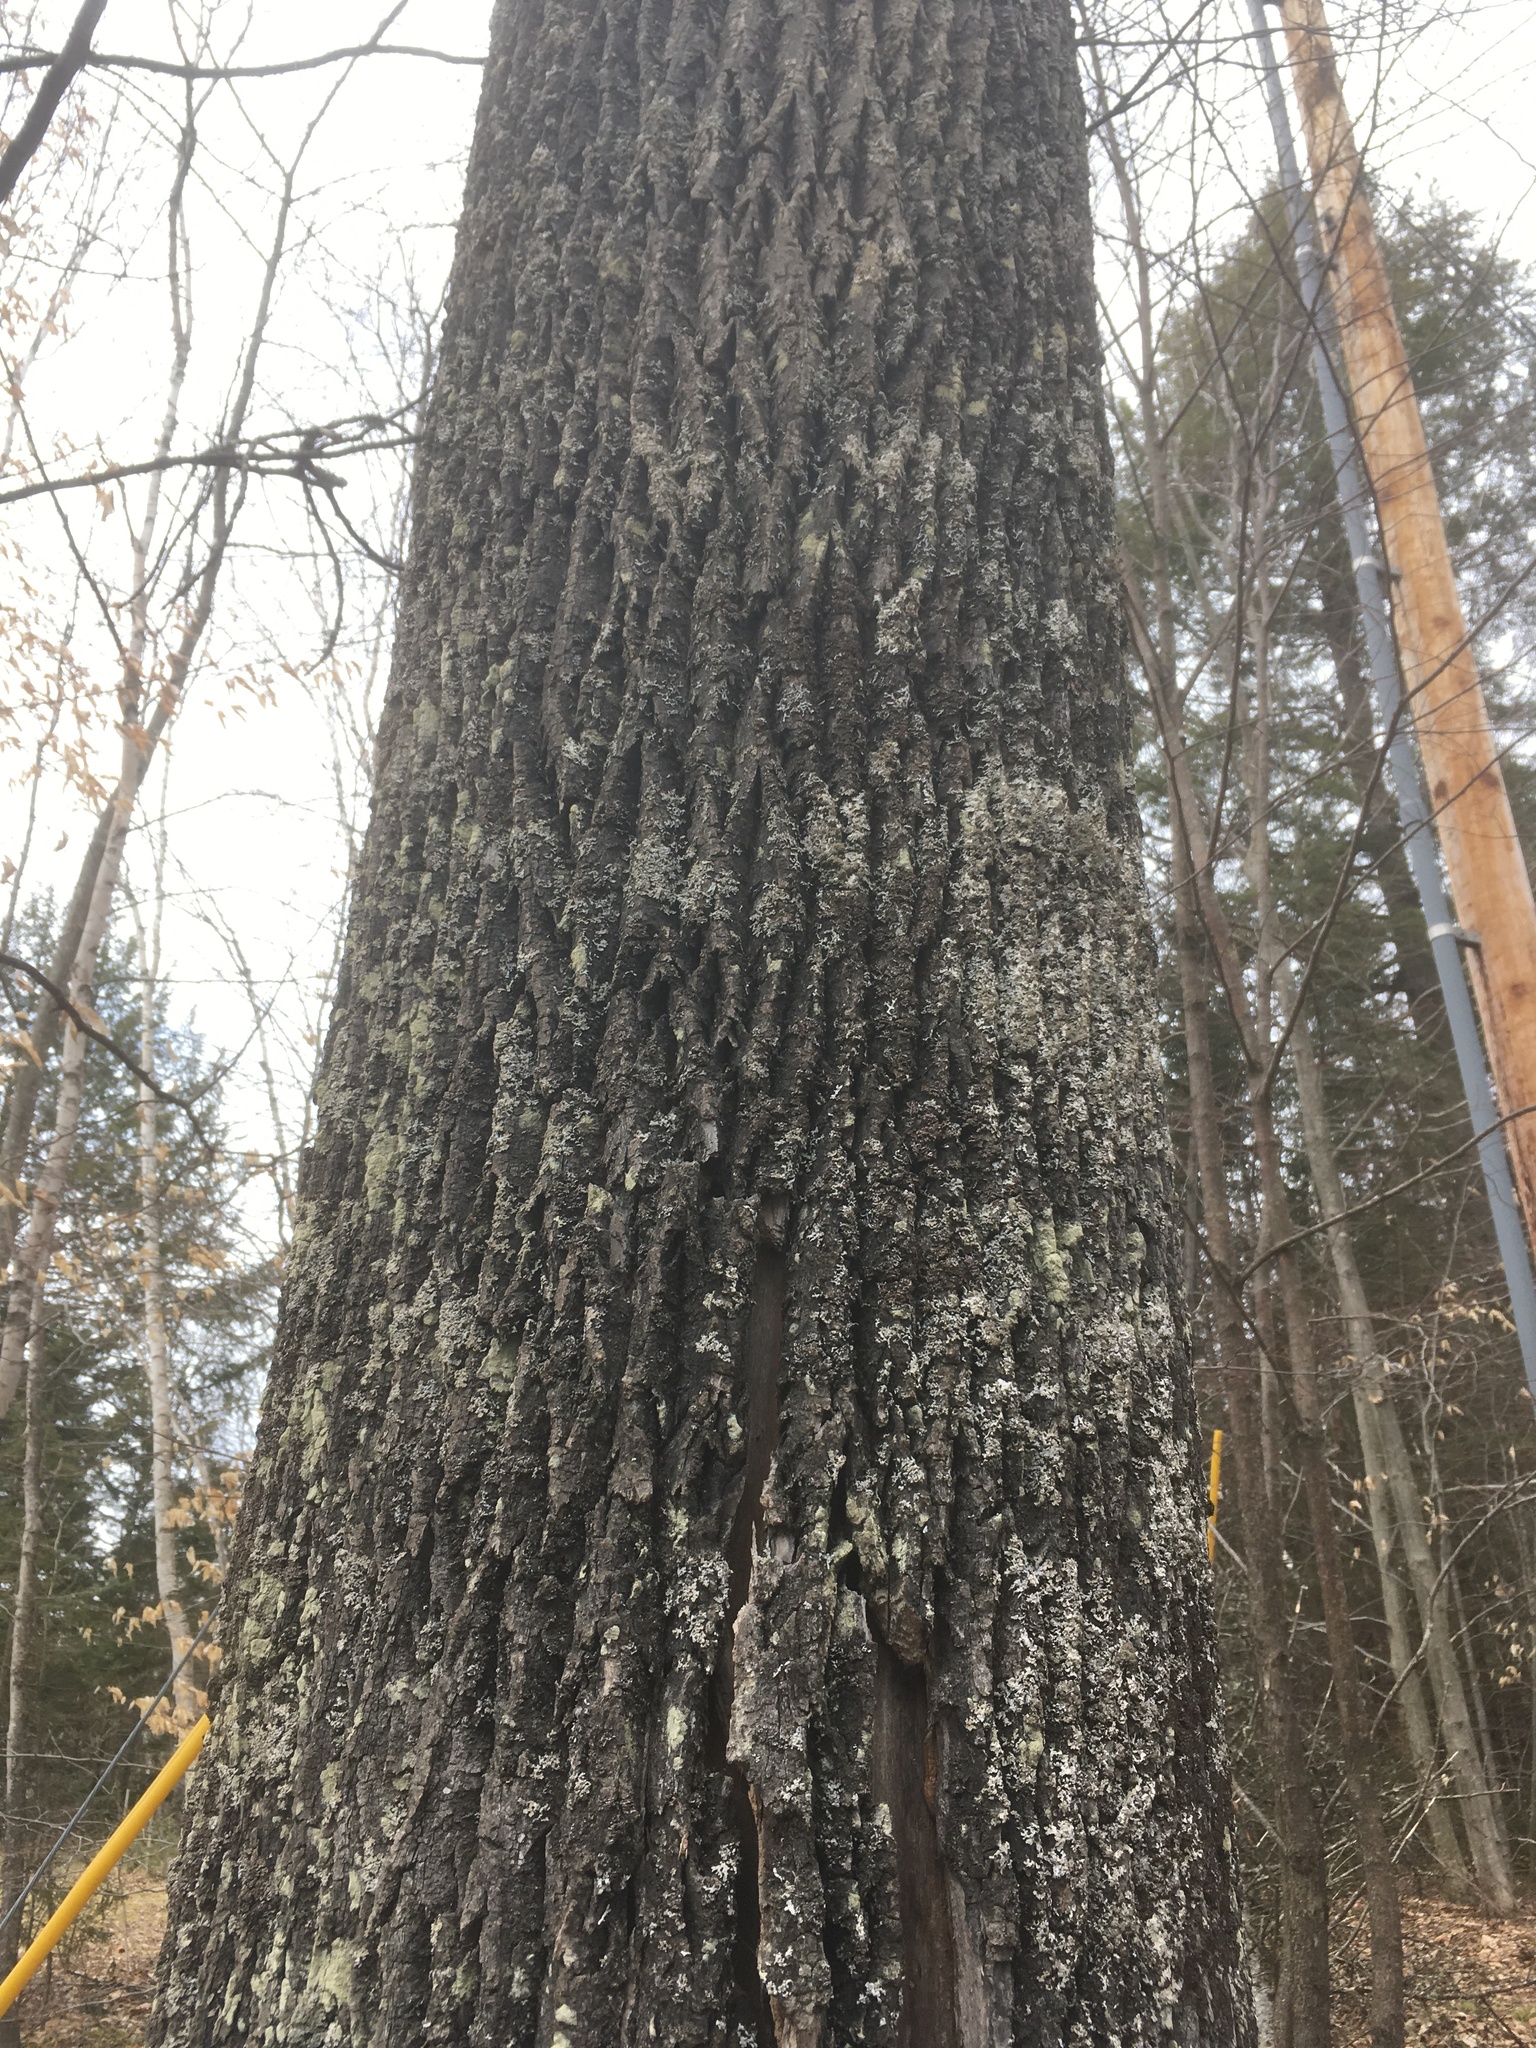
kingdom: Plantae
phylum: Tracheophyta
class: Magnoliopsida
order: Lamiales
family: Oleaceae
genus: Fraxinus
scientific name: Fraxinus americana
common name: White ash
